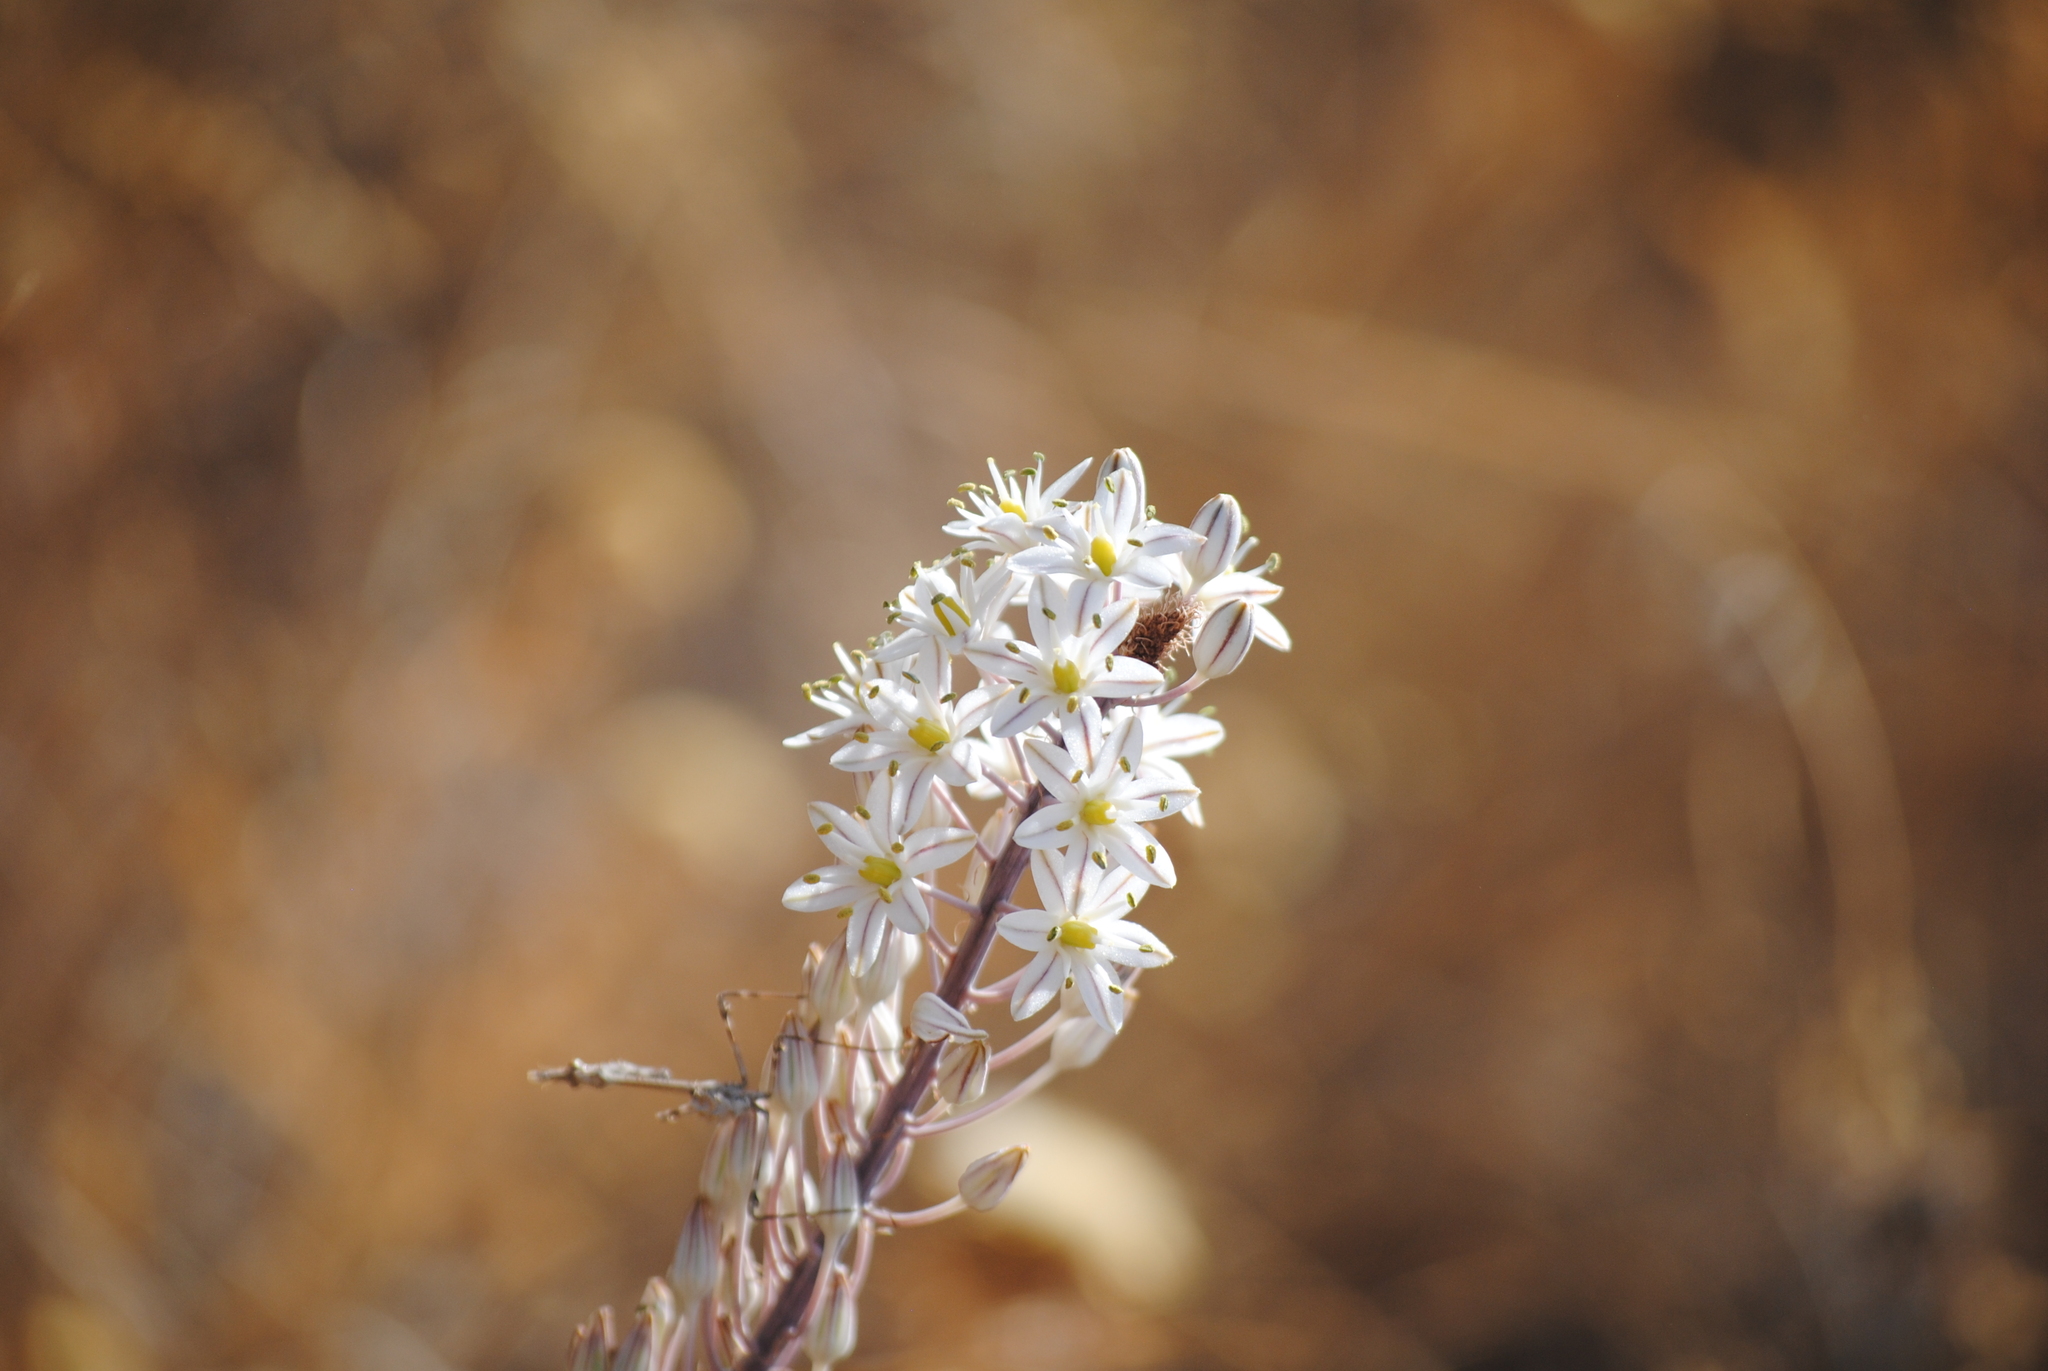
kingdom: Plantae
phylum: Tracheophyta
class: Liliopsida
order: Asparagales
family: Asparagaceae
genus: Drimia
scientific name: Drimia maritima
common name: Maritime squill
